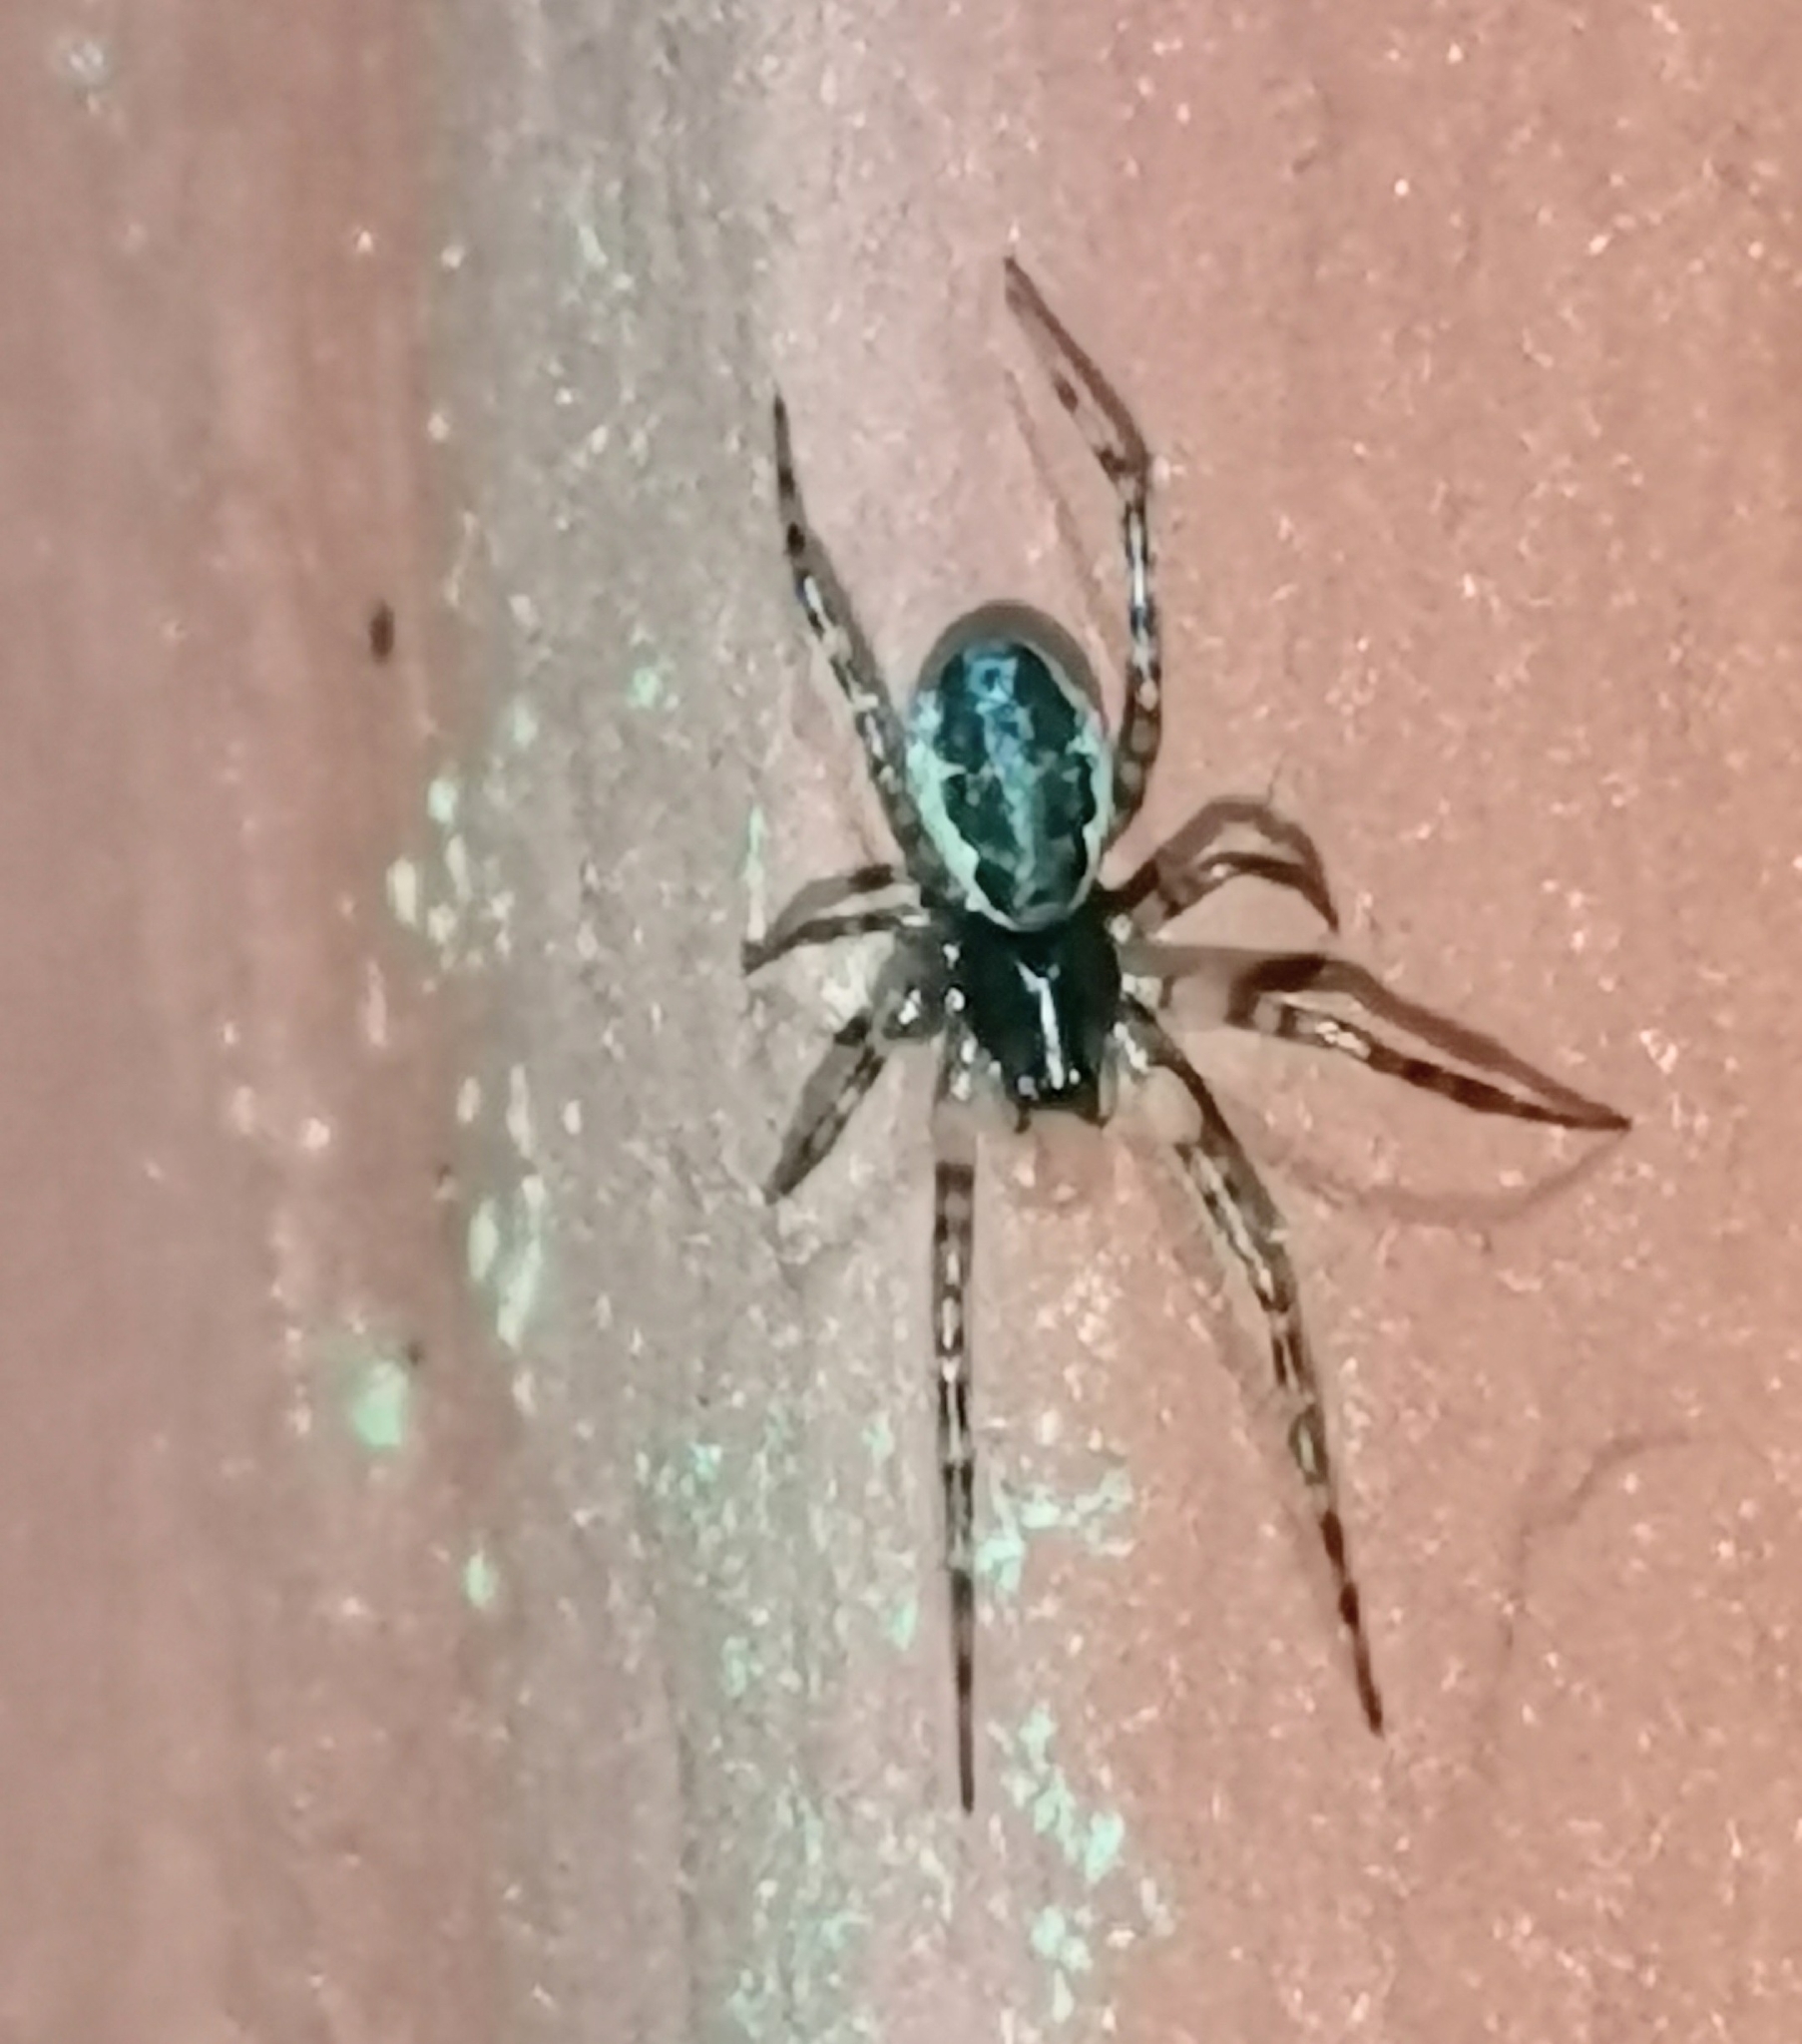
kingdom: Animalia
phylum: Arthropoda
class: Arachnida
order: Araneae
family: Linyphiidae
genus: Neriene
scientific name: Neriene montana
